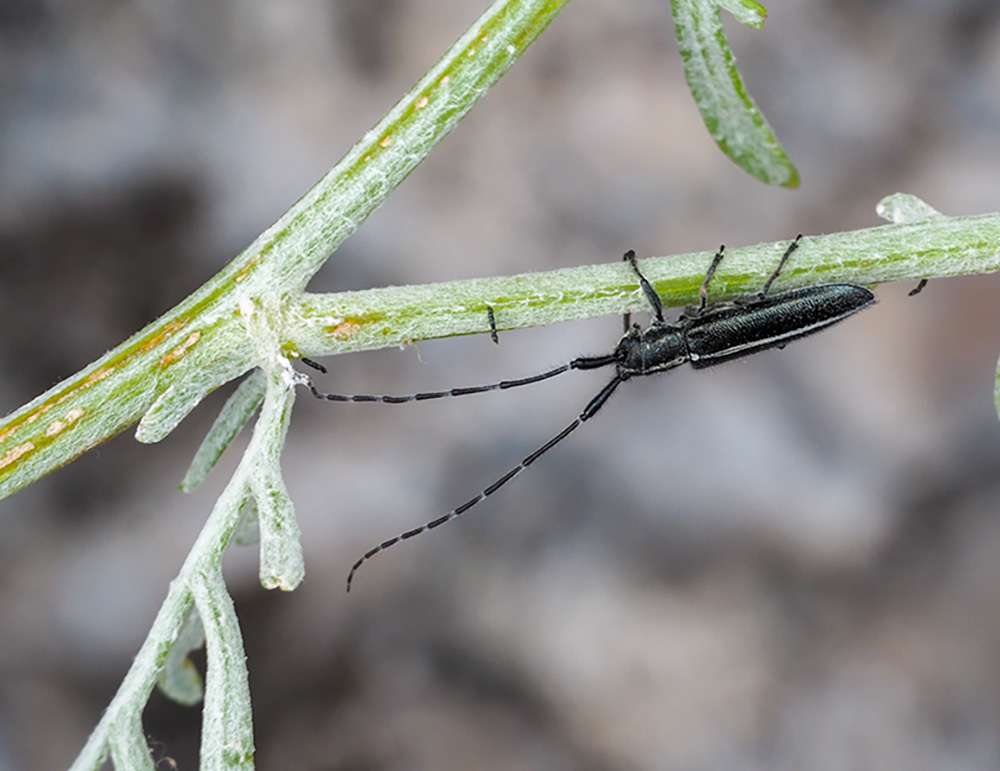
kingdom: Animalia
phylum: Arthropoda
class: Insecta
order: Coleoptera
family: Cerambycidae
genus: Agapanthia
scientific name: Agapanthia cardui
